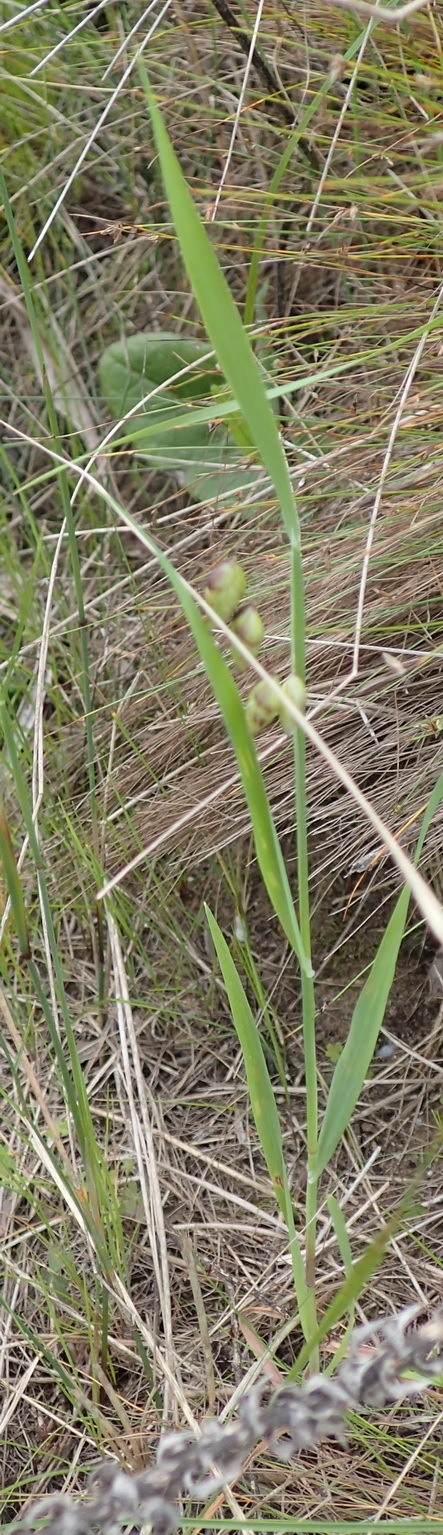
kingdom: Plantae
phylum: Tracheophyta
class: Liliopsida
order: Poales
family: Poaceae
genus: Briza
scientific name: Briza maxima
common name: Big quakinggrass
